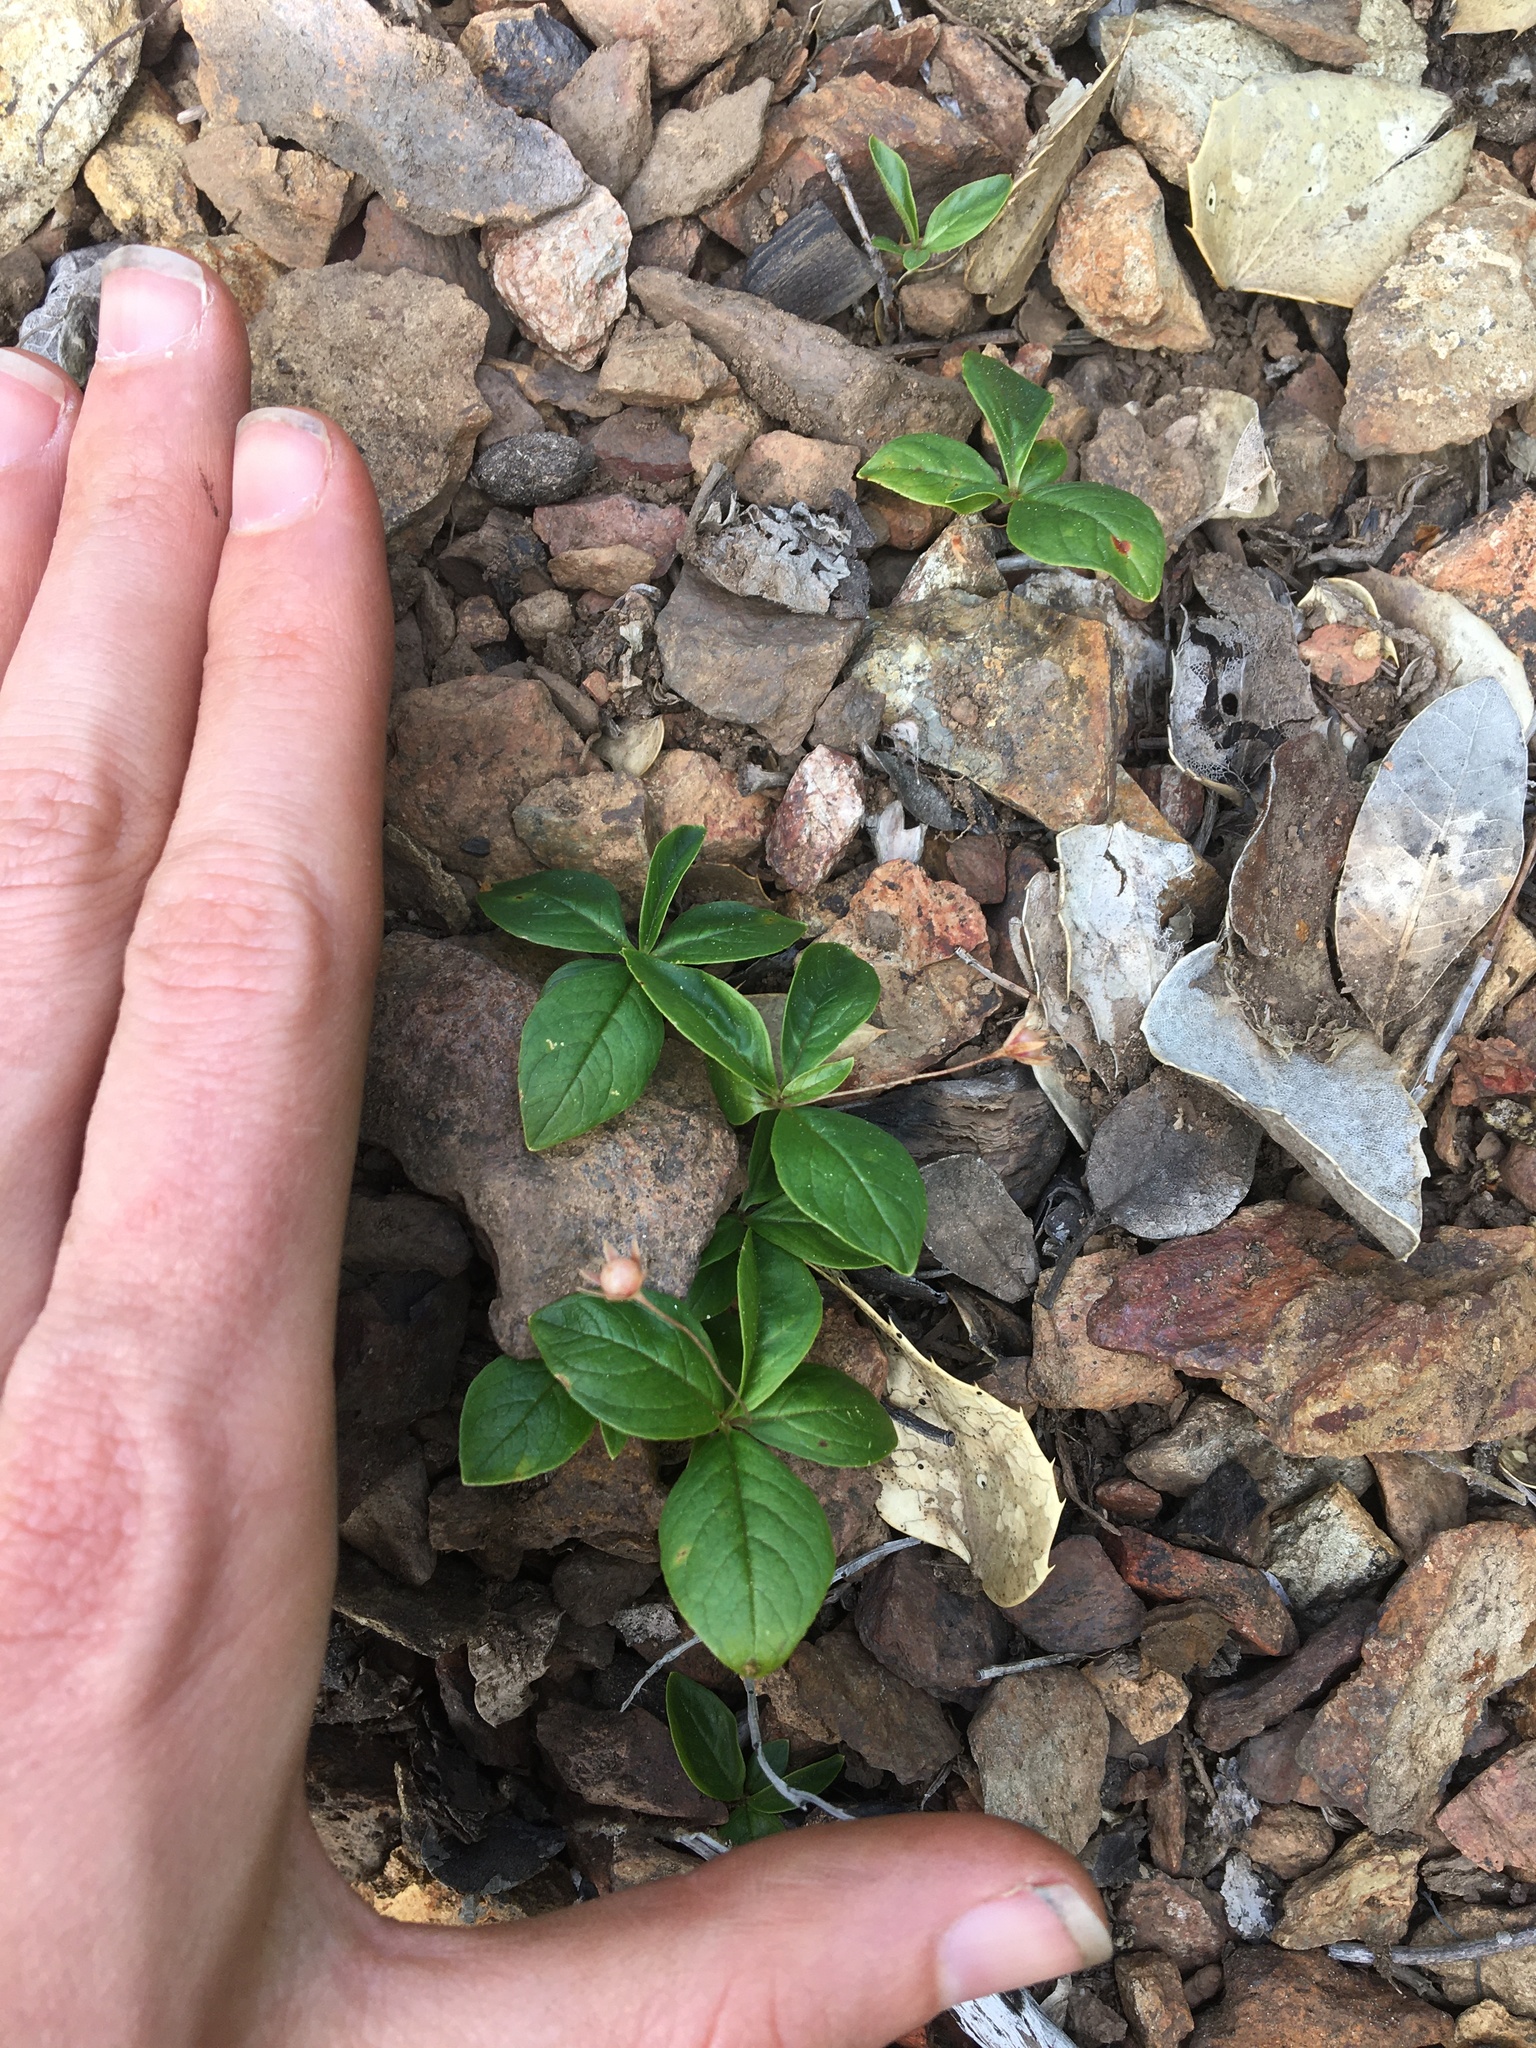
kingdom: Plantae
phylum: Tracheophyta
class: Magnoliopsida
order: Ericales
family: Primulaceae
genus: Lysimachia
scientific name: Lysimachia latifolia
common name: Pacific starflower
